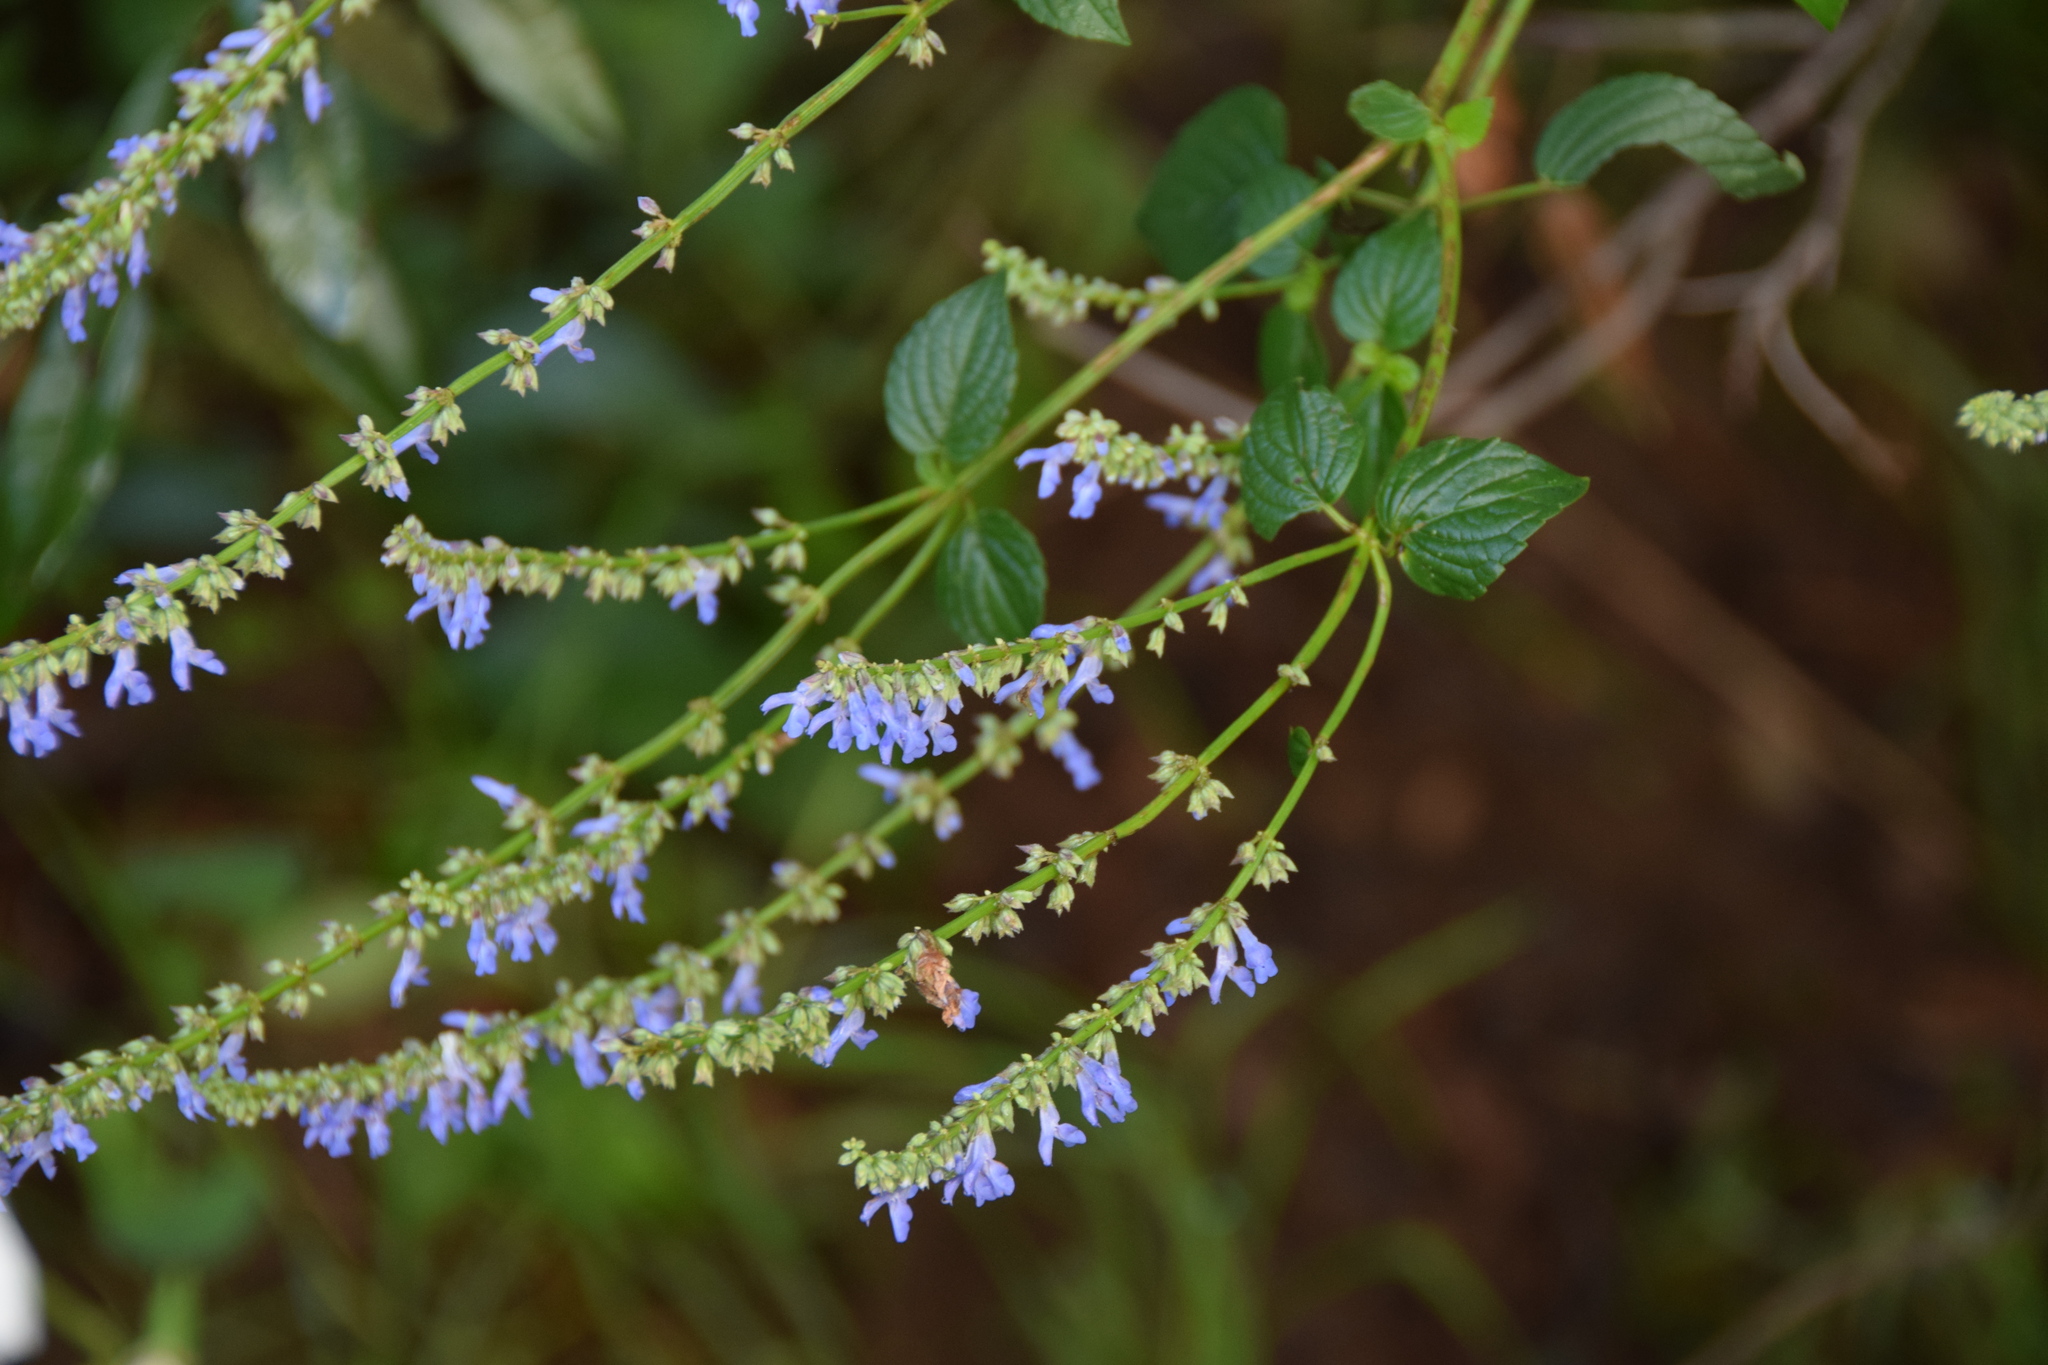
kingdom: Plantae
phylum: Tracheophyta
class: Magnoliopsida
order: Lamiales
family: Lamiaceae
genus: Salvia
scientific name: Salvia polystachia
